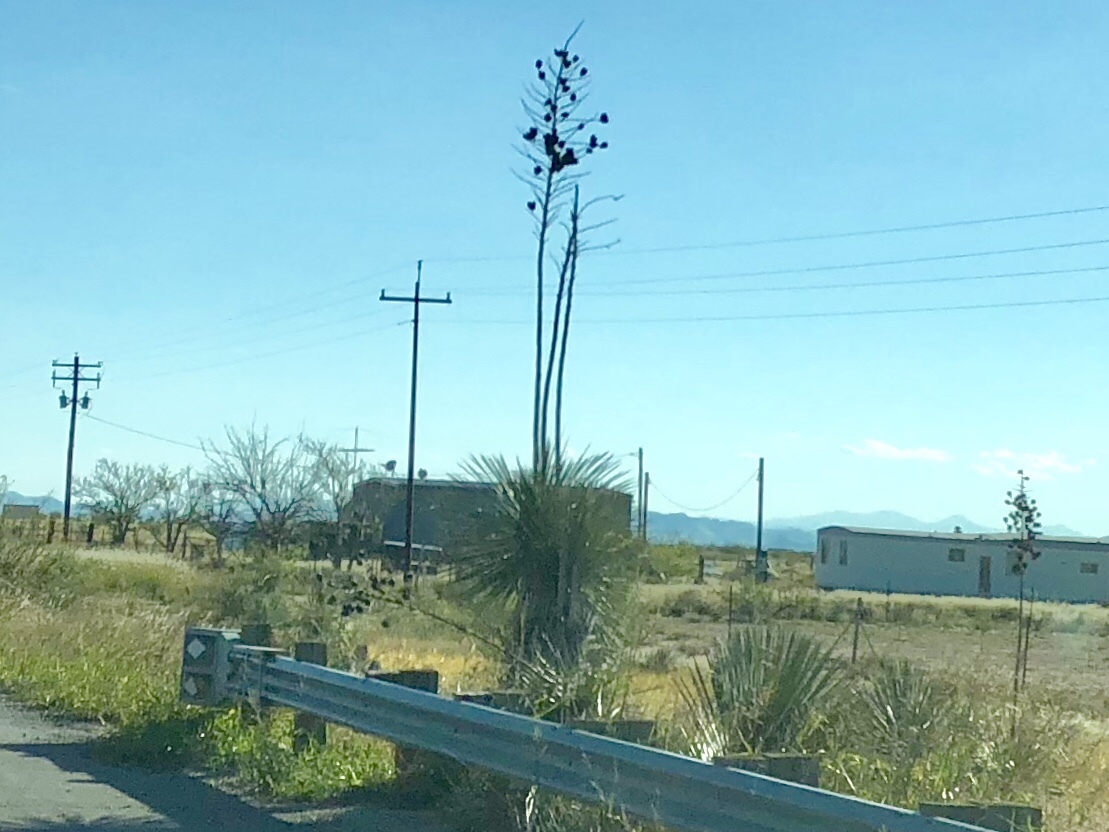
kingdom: Plantae
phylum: Tracheophyta
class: Liliopsida
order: Asparagales
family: Asparagaceae
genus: Yucca
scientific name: Yucca elata
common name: Palmella
